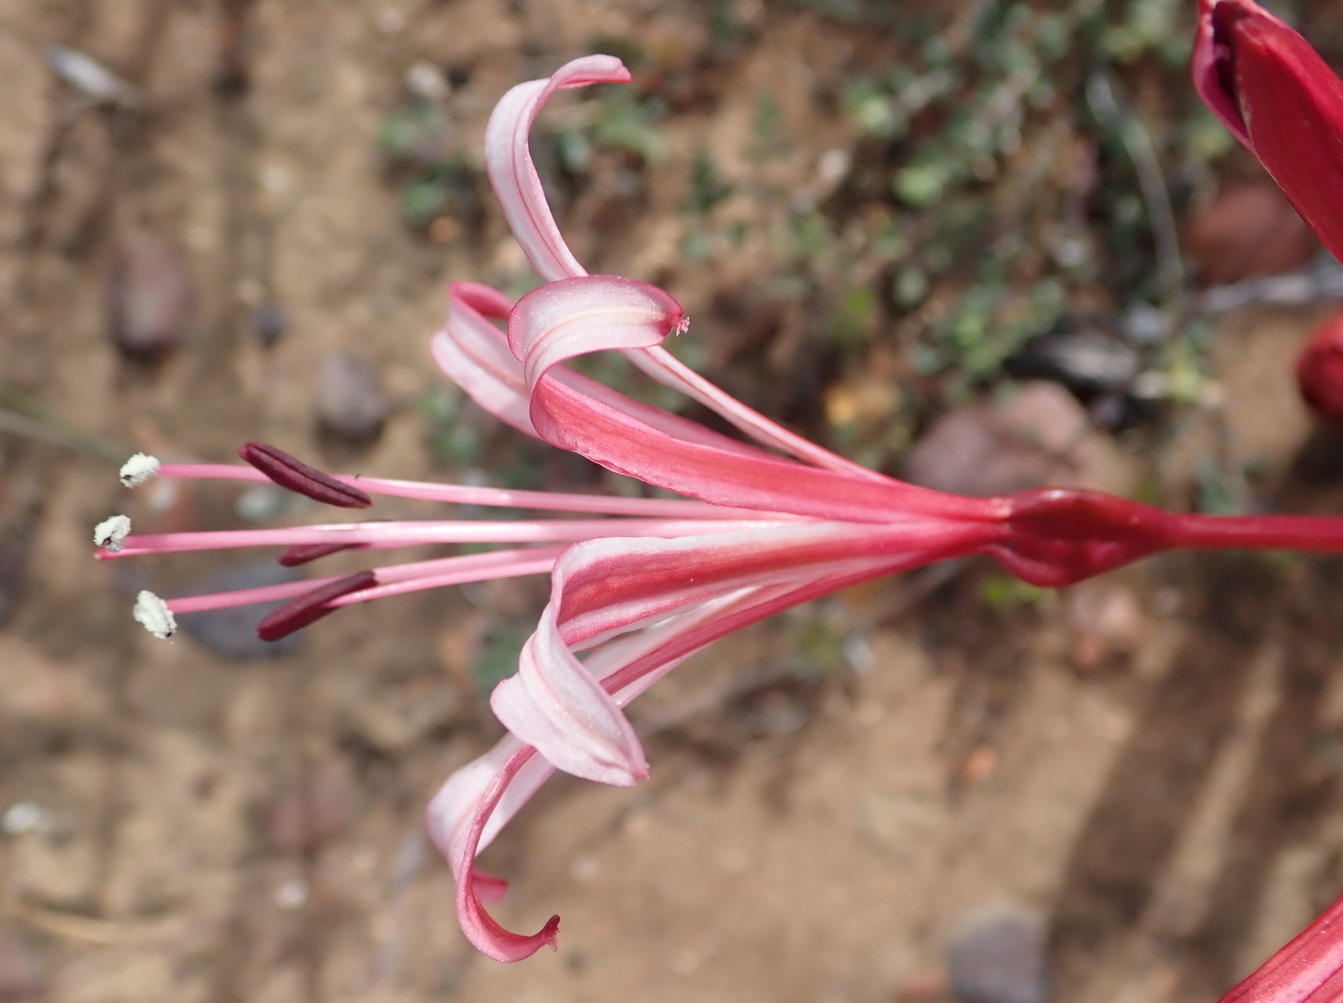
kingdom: Plantae
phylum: Tracheophyta
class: Liliopsida
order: Asparagales
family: Amaryllidaceae
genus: Brunsvigia
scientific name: Brunsvigia nervosa
